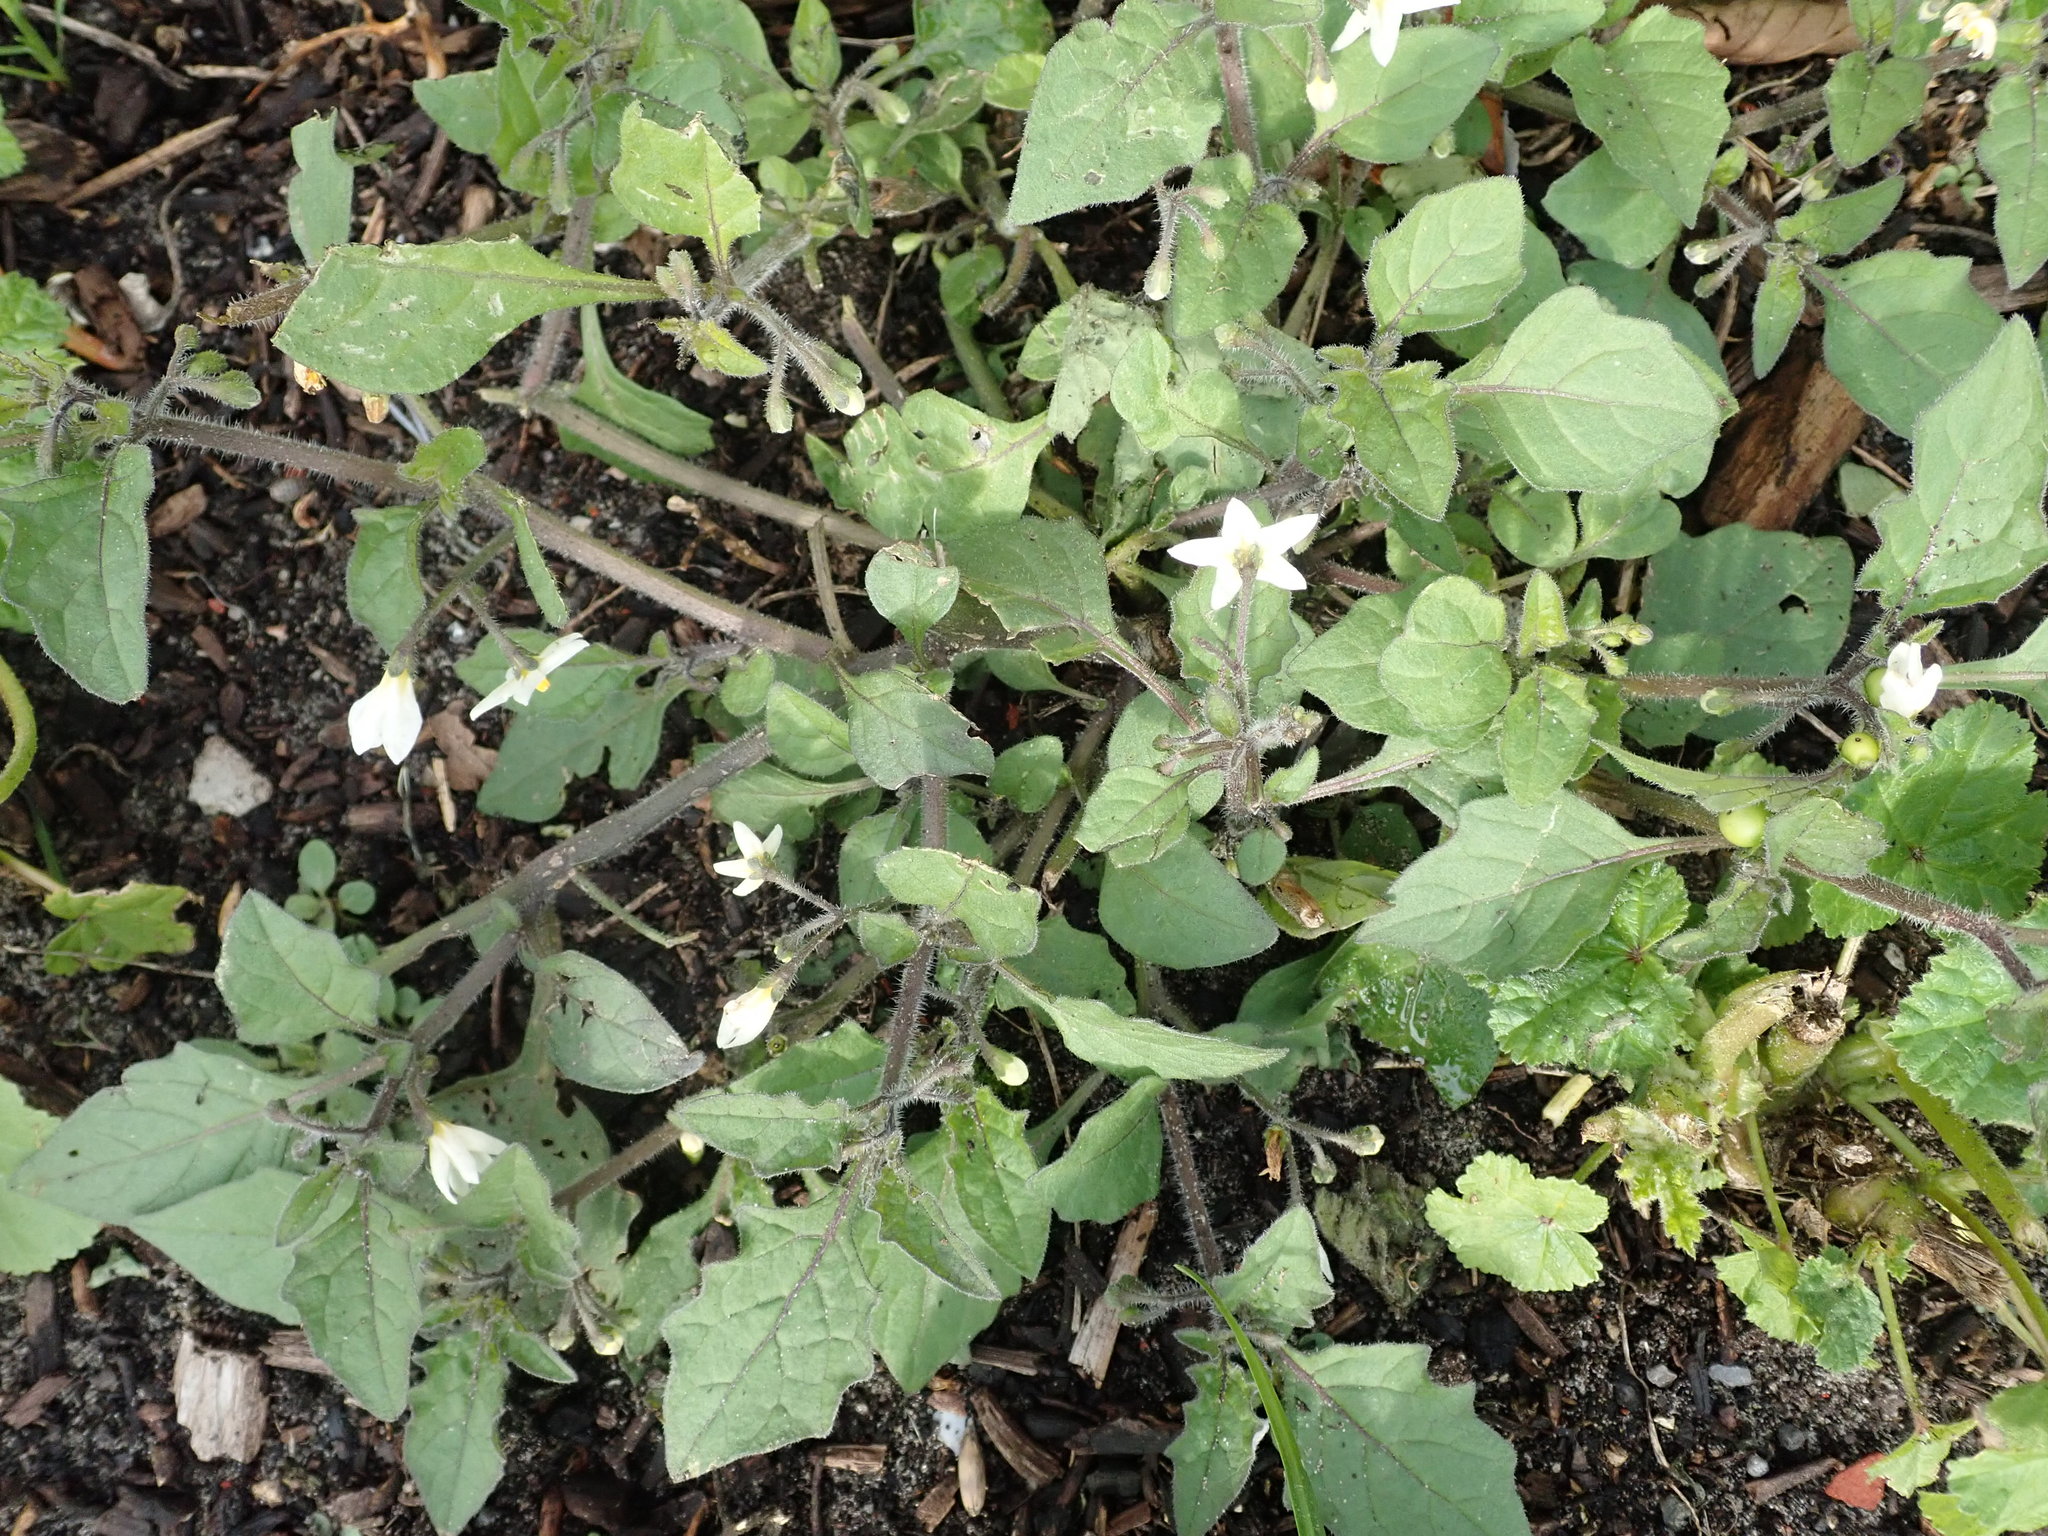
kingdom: Plantae
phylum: Tracheophyta
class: Magnoliopsida
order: Solanales
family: Solanaceae
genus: Solanum
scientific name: Solanum nigrum
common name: Black nightshade
